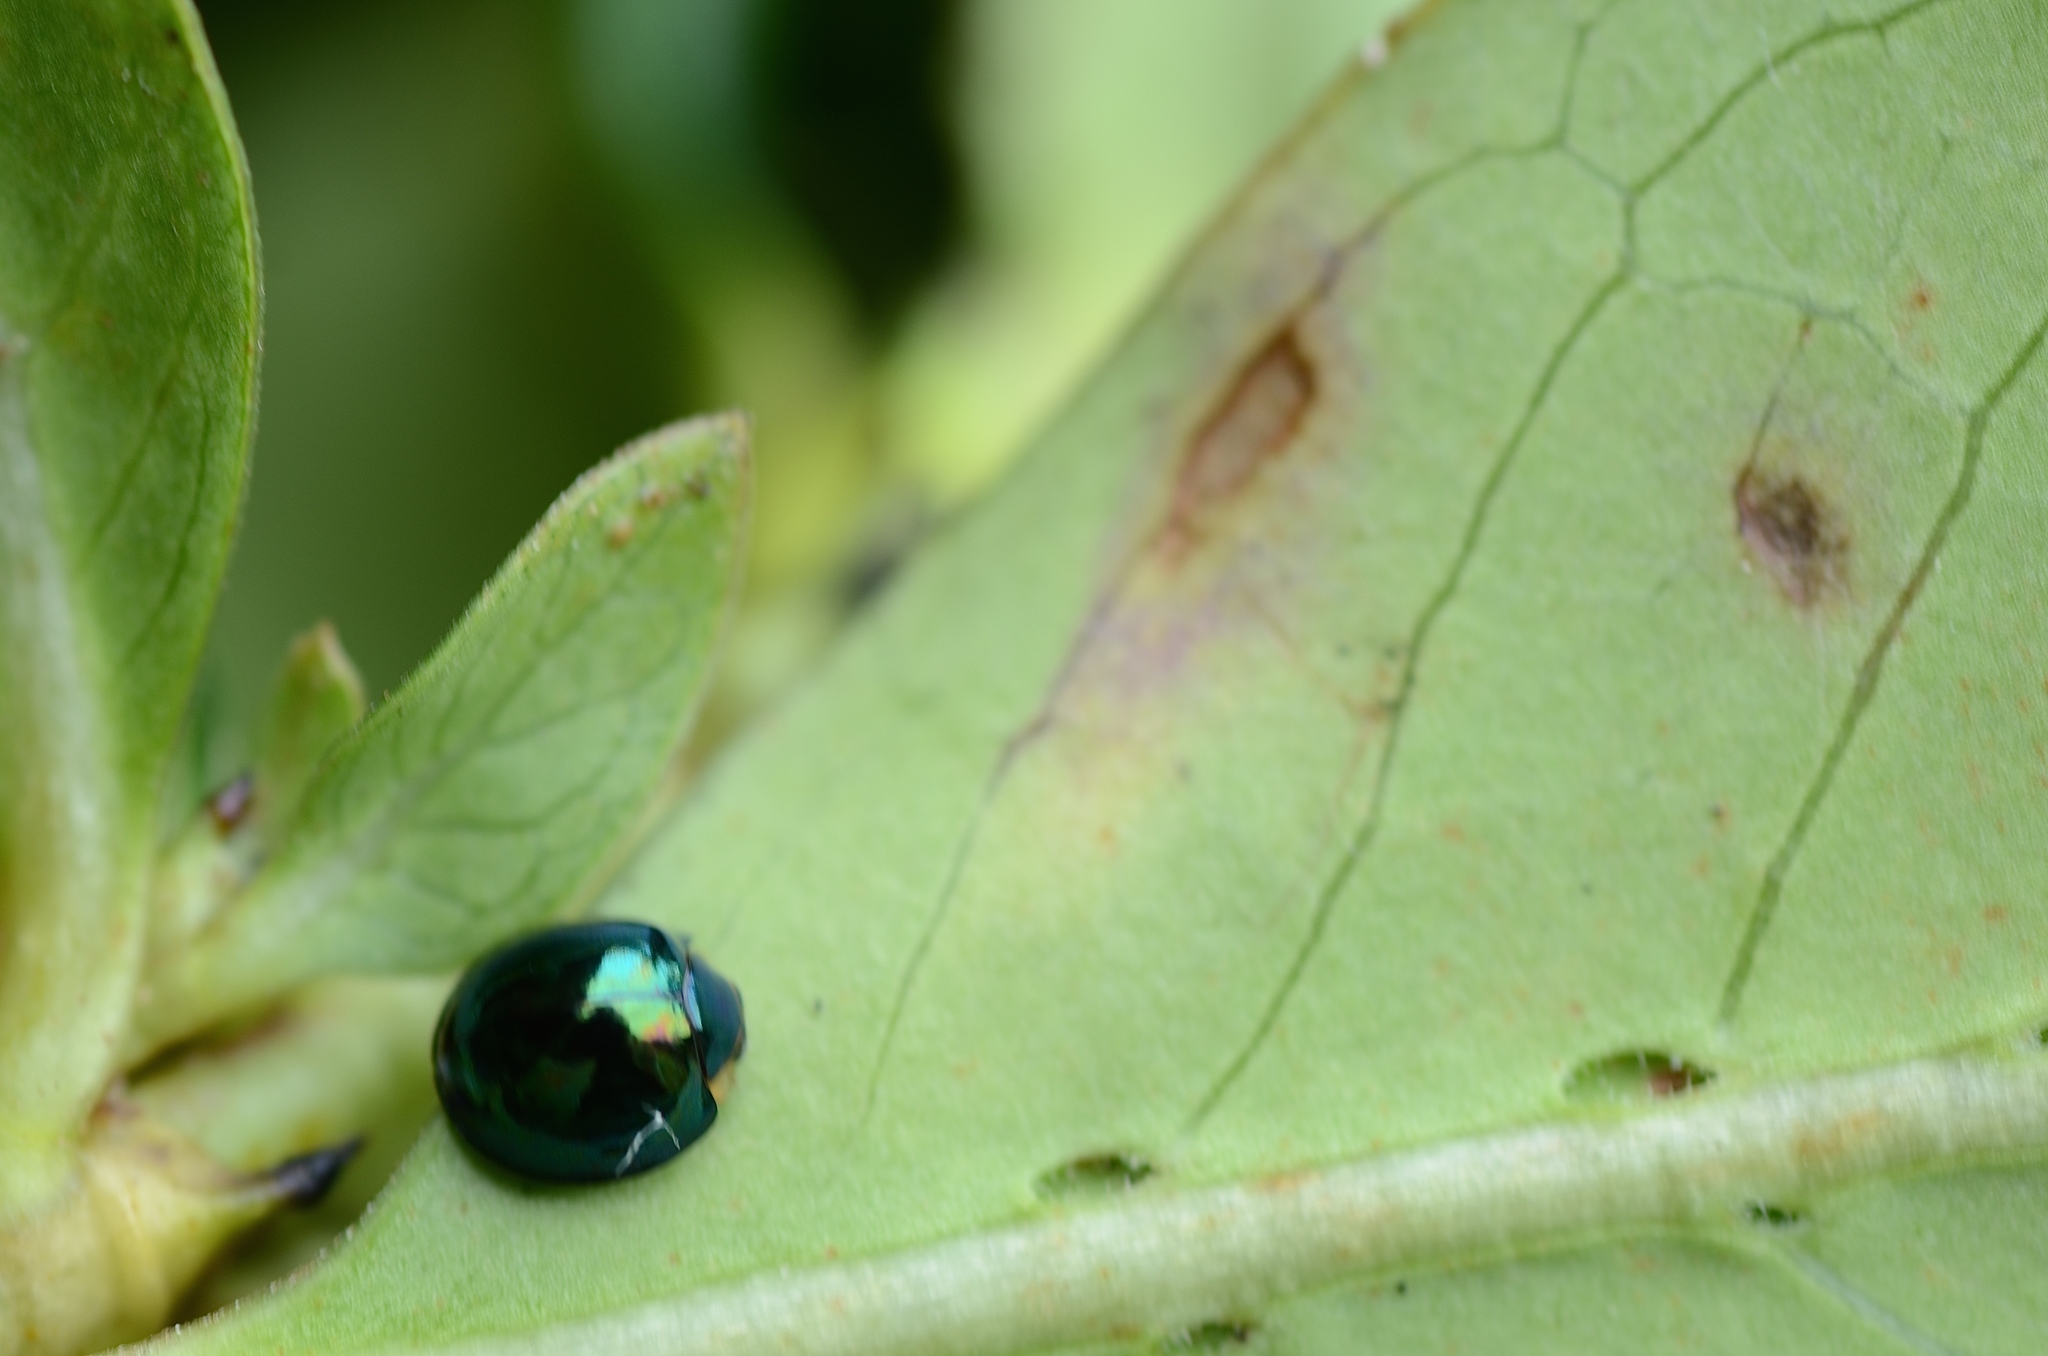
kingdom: Animalia
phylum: Arthropoda
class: Insecta
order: Coleoptera
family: Coccinellidae
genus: Halmus
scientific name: Halmus chalybeus
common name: Steel blue ladybird beetle
